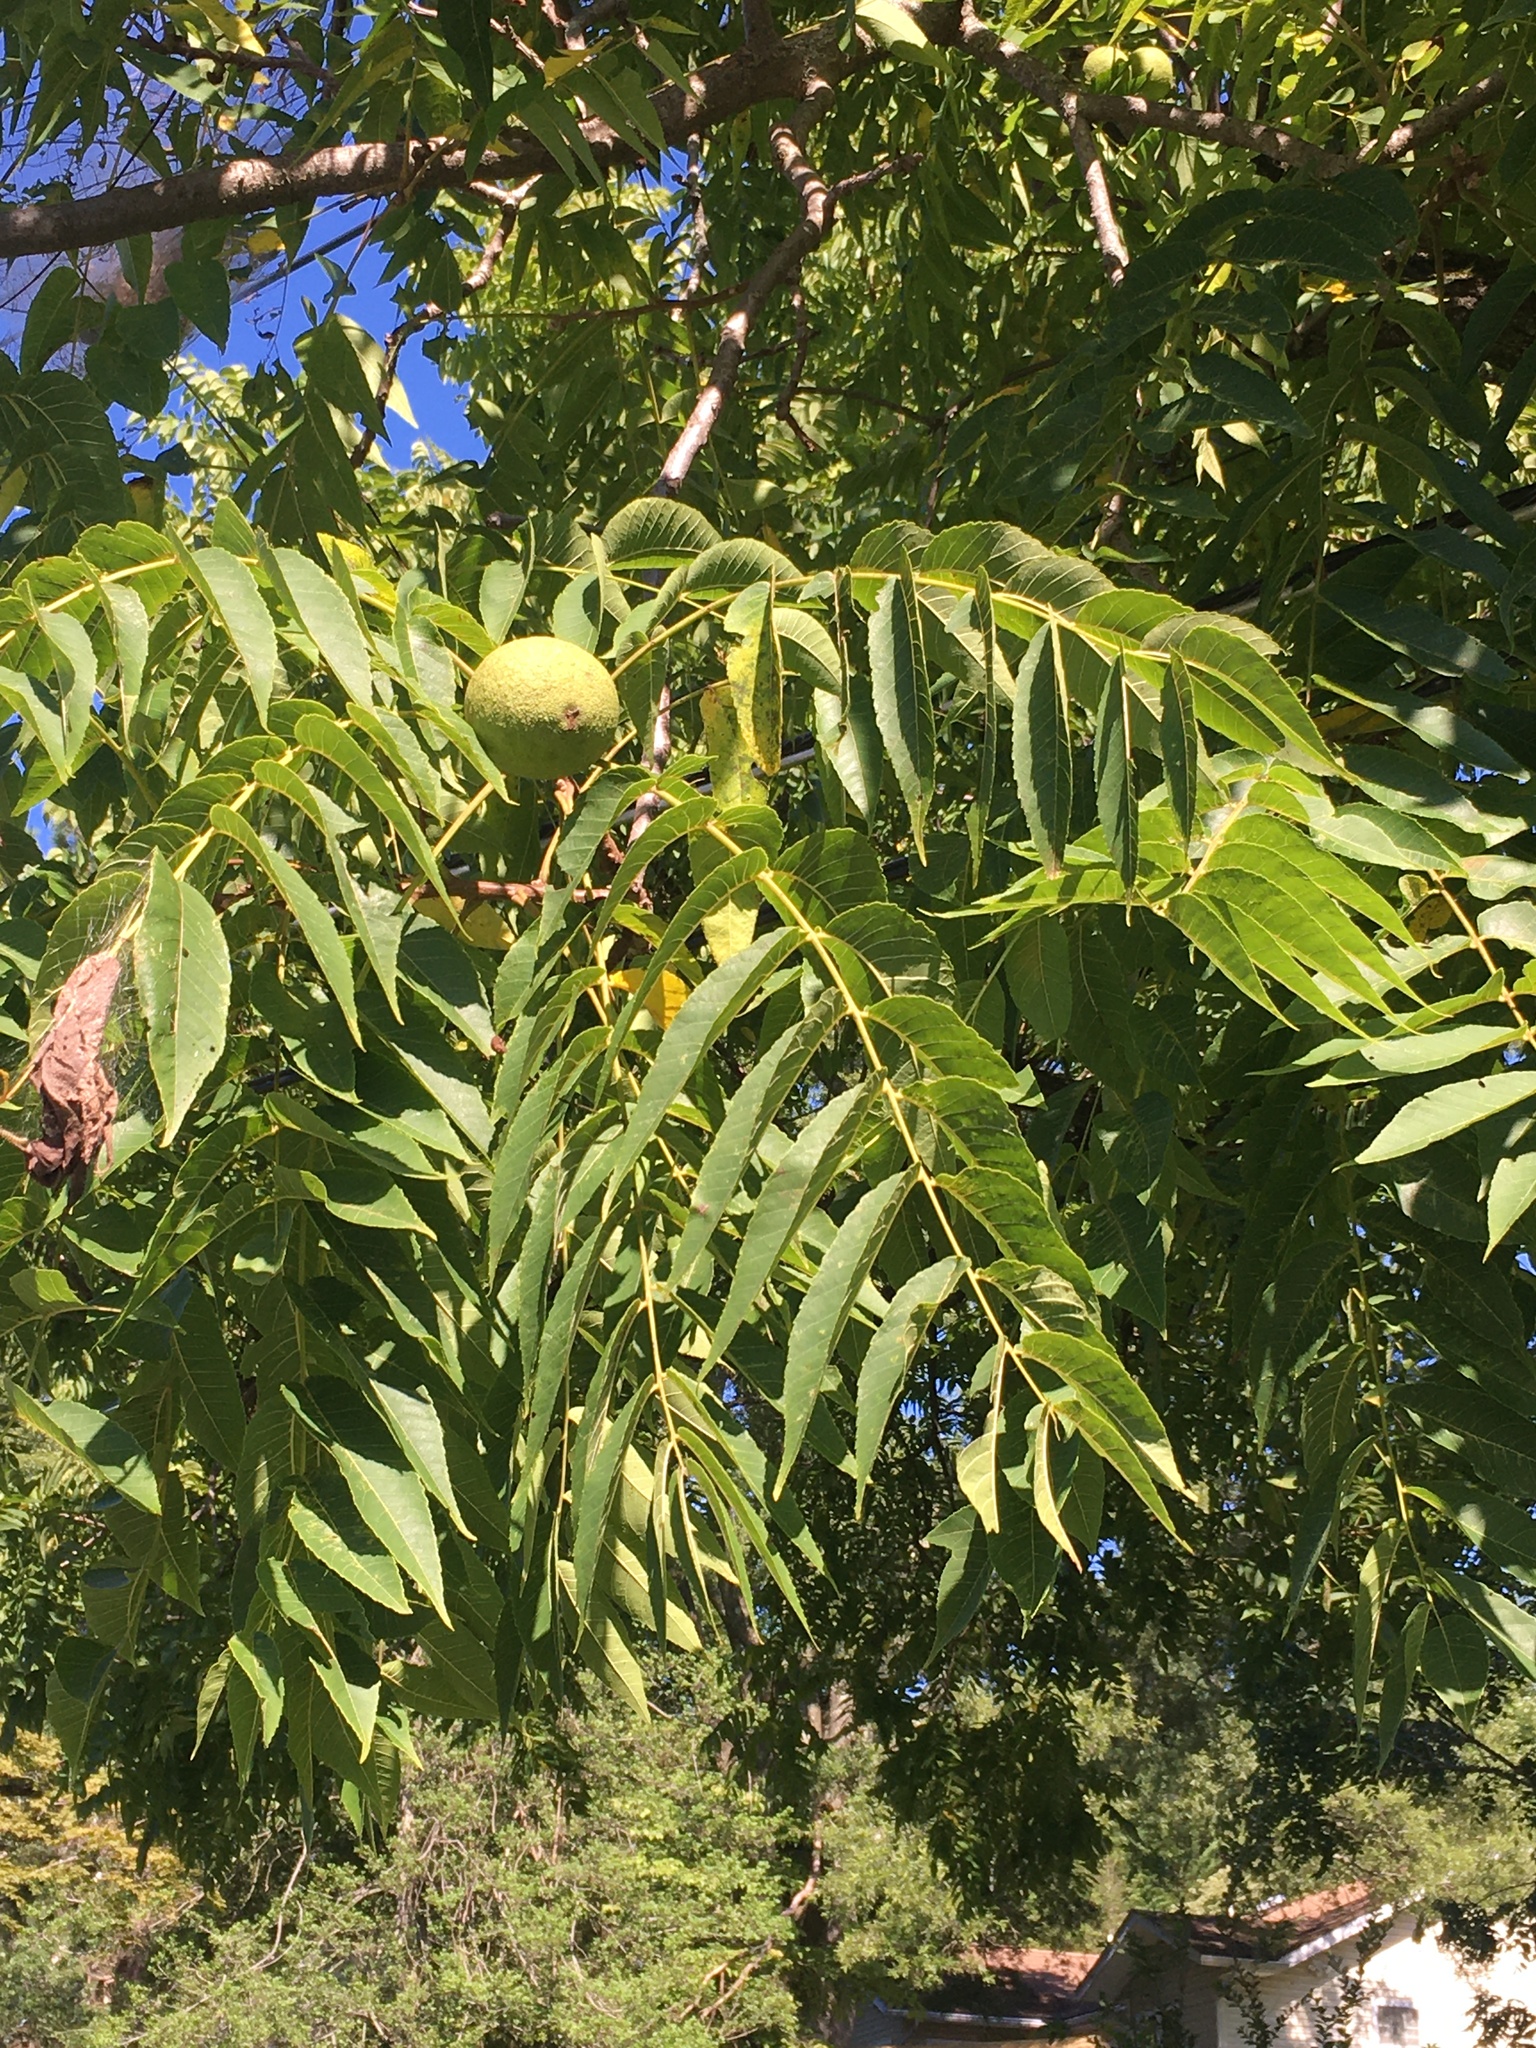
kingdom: Plantae
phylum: Tracheophyta
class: Magnoliopsida
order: Fagales
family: Juglandaceae
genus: Juglans
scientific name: Juglans nigra
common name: Black walnut
